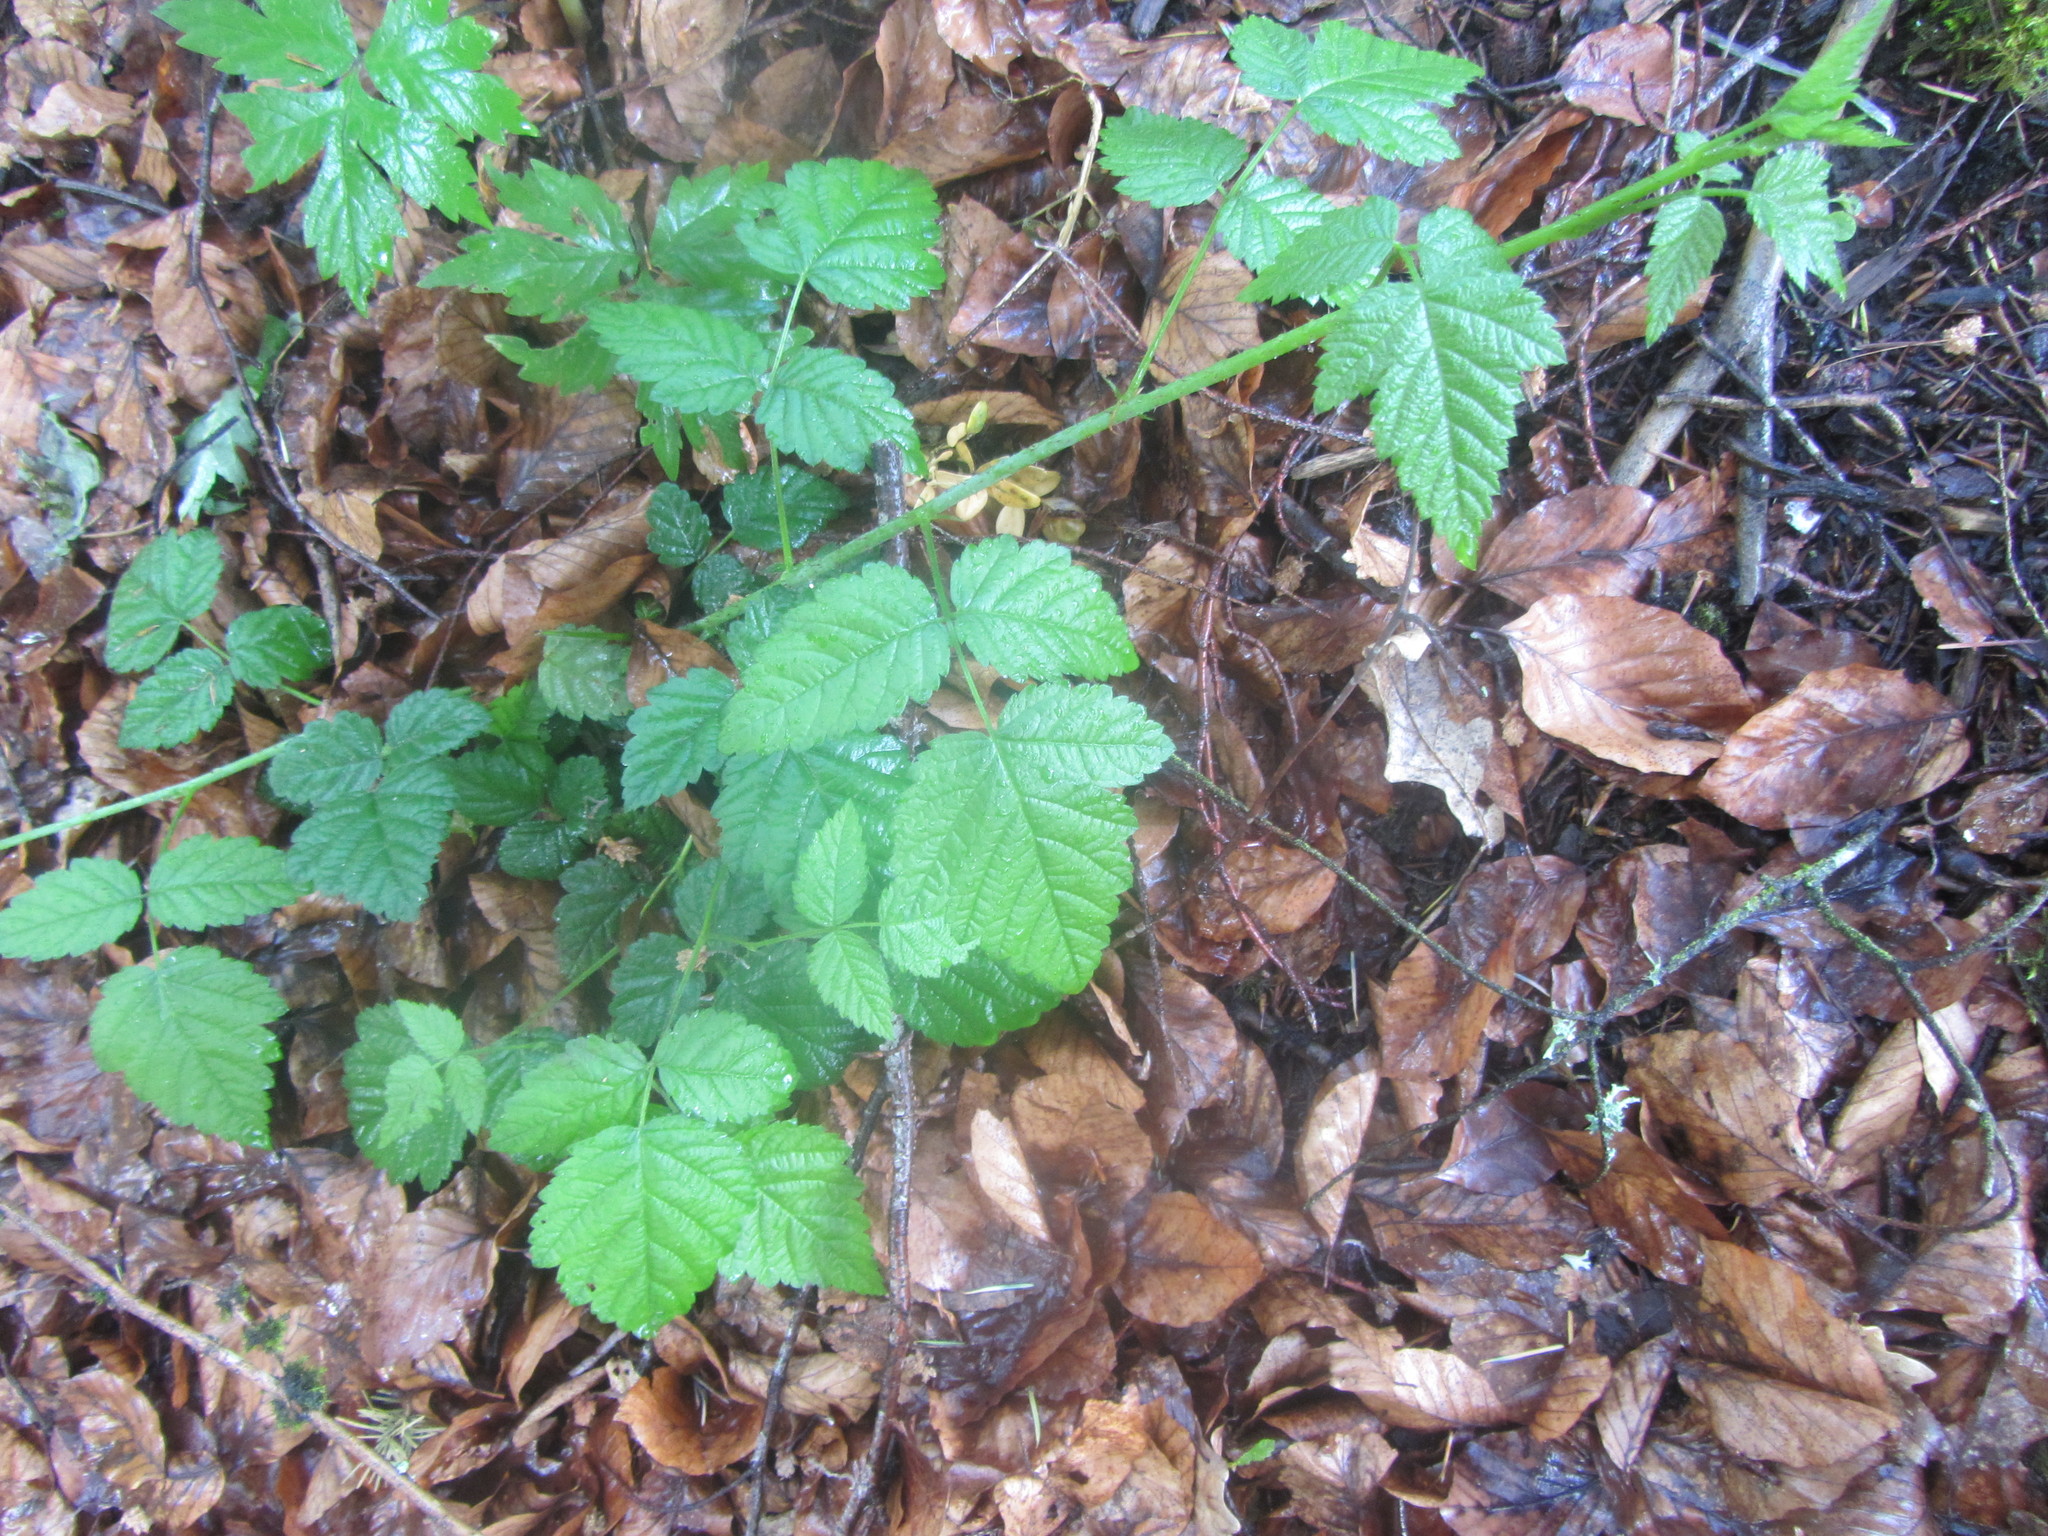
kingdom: Plantae
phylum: Tracheophyta
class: Magnoliopsida
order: Rosales
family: Rosaceae
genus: Rubus
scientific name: Rubus ursinus
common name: Pacific blackberry
